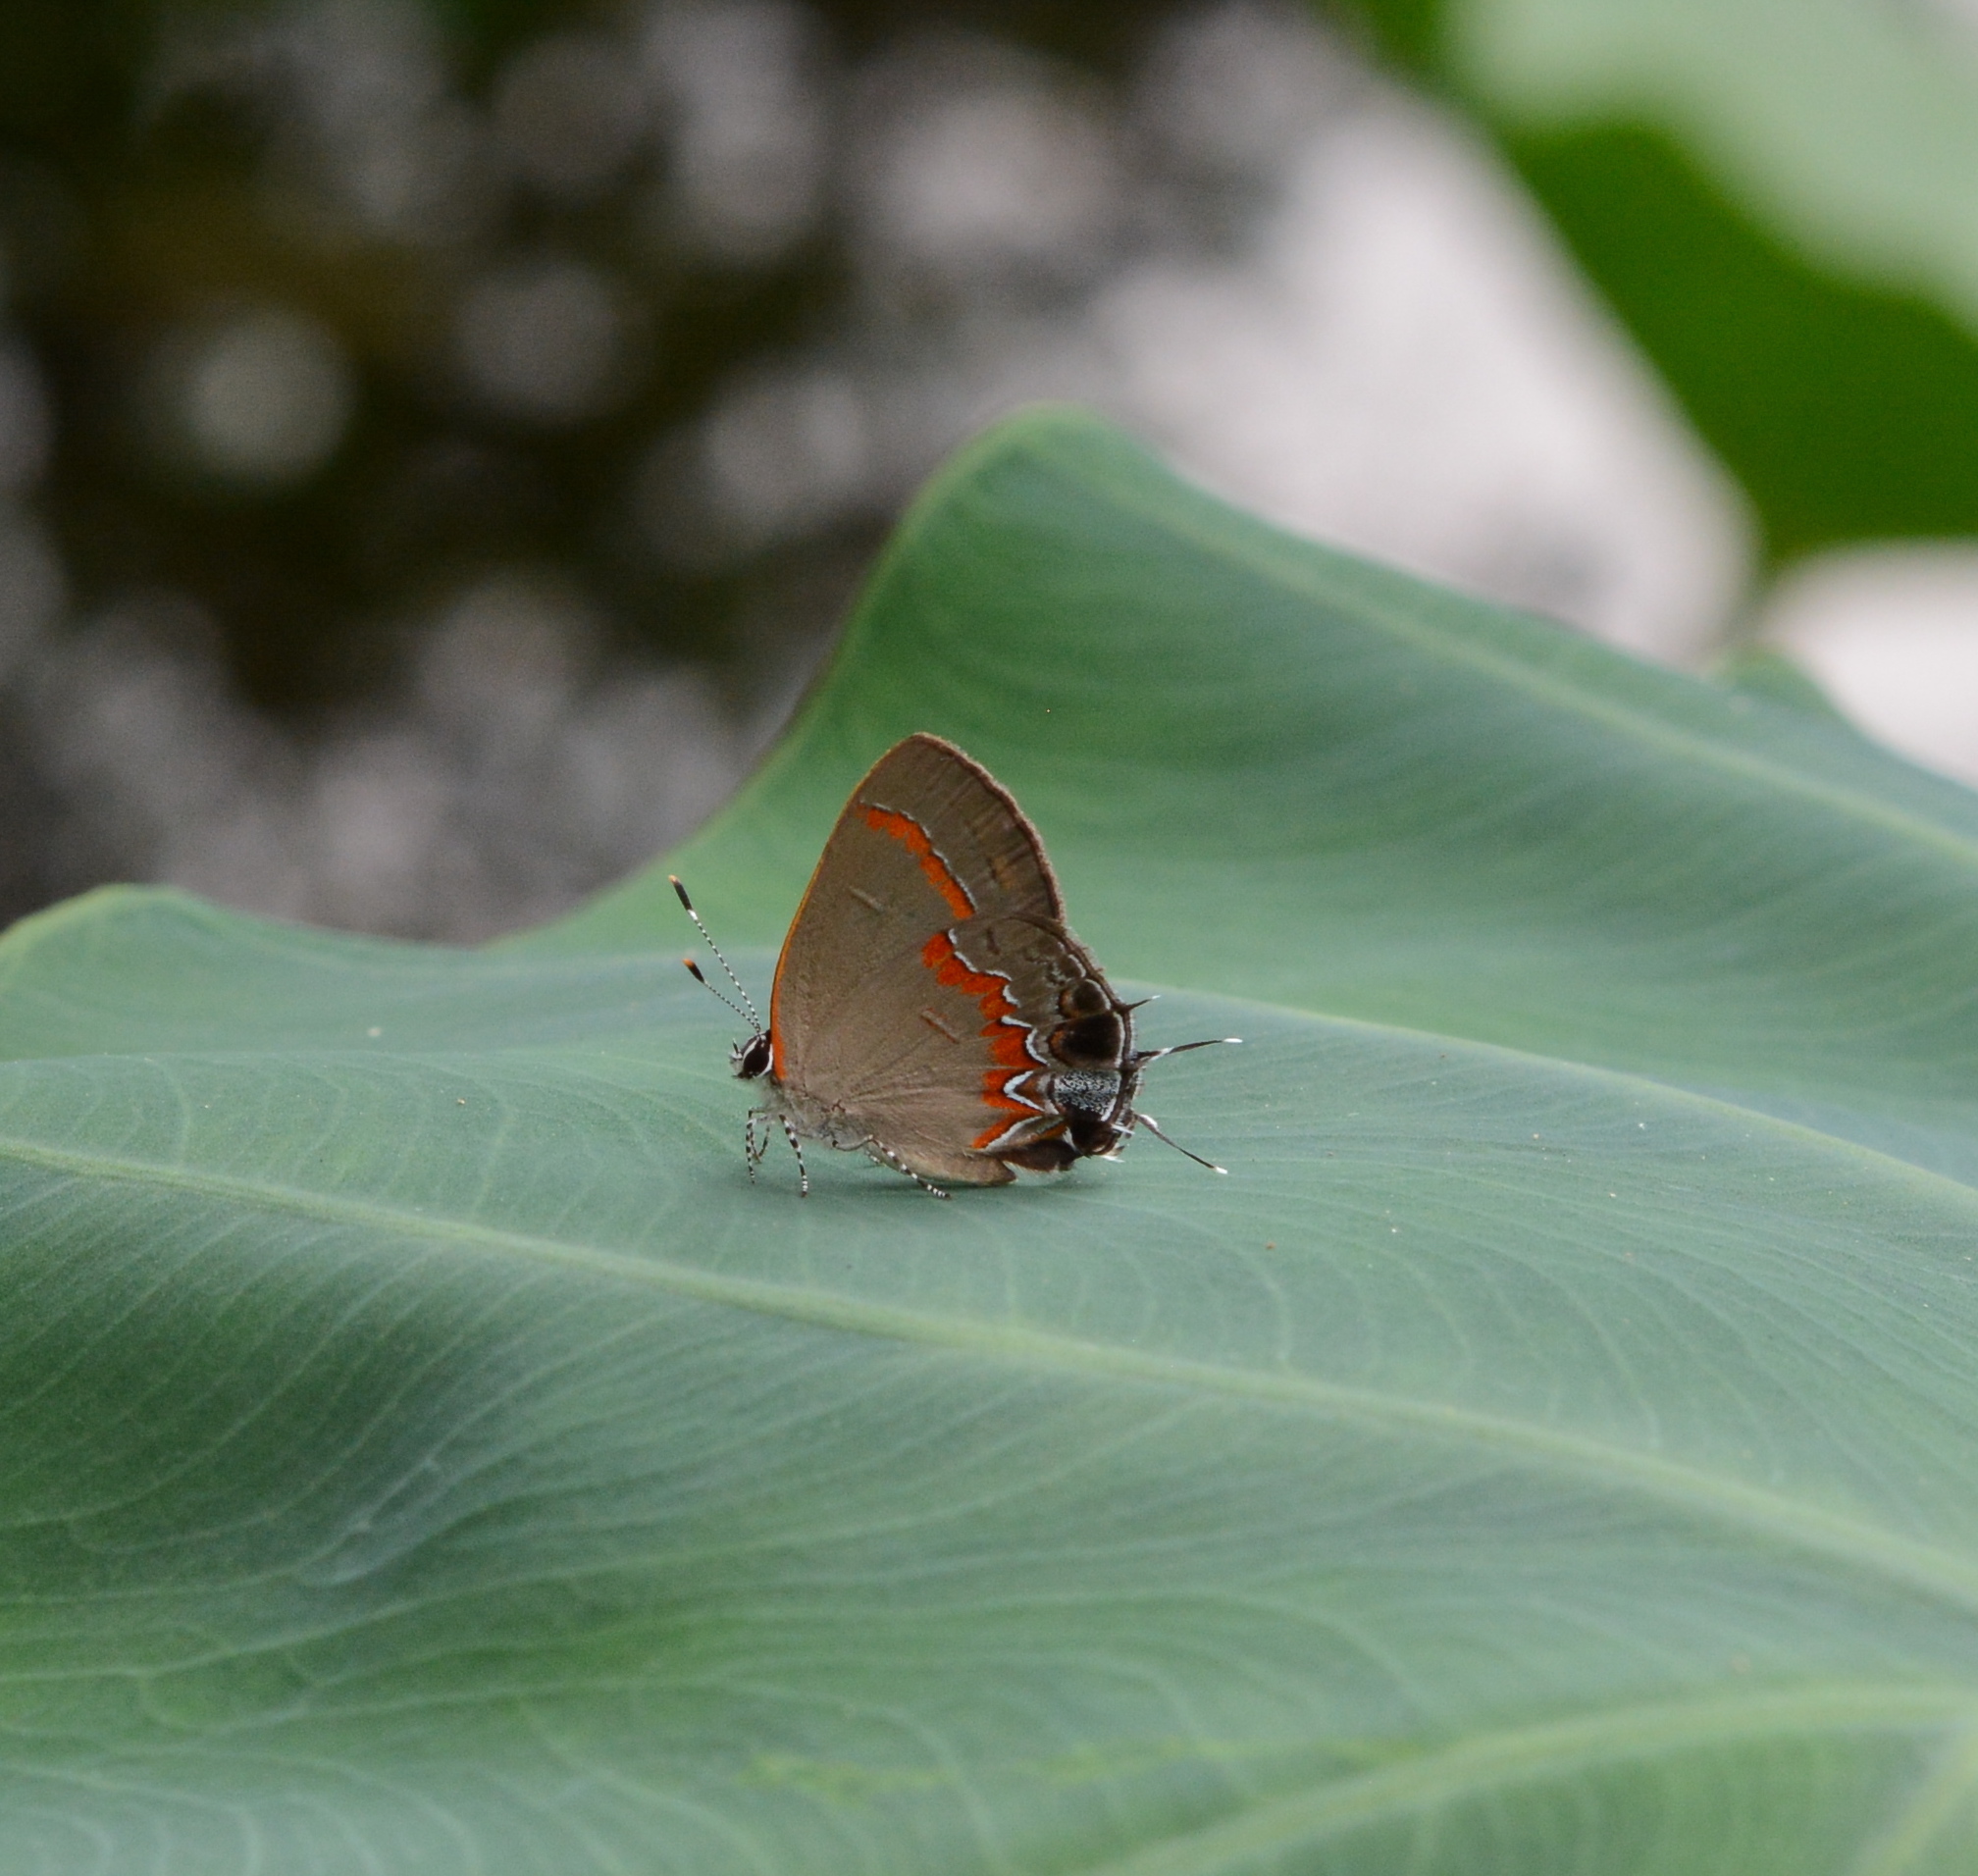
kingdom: Animalia
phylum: Arthropoda
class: Insecta
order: Lepidoptera
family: Lycaenidae
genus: Calycopis
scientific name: Calycopis cecrops
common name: Red-banded hairstreak
